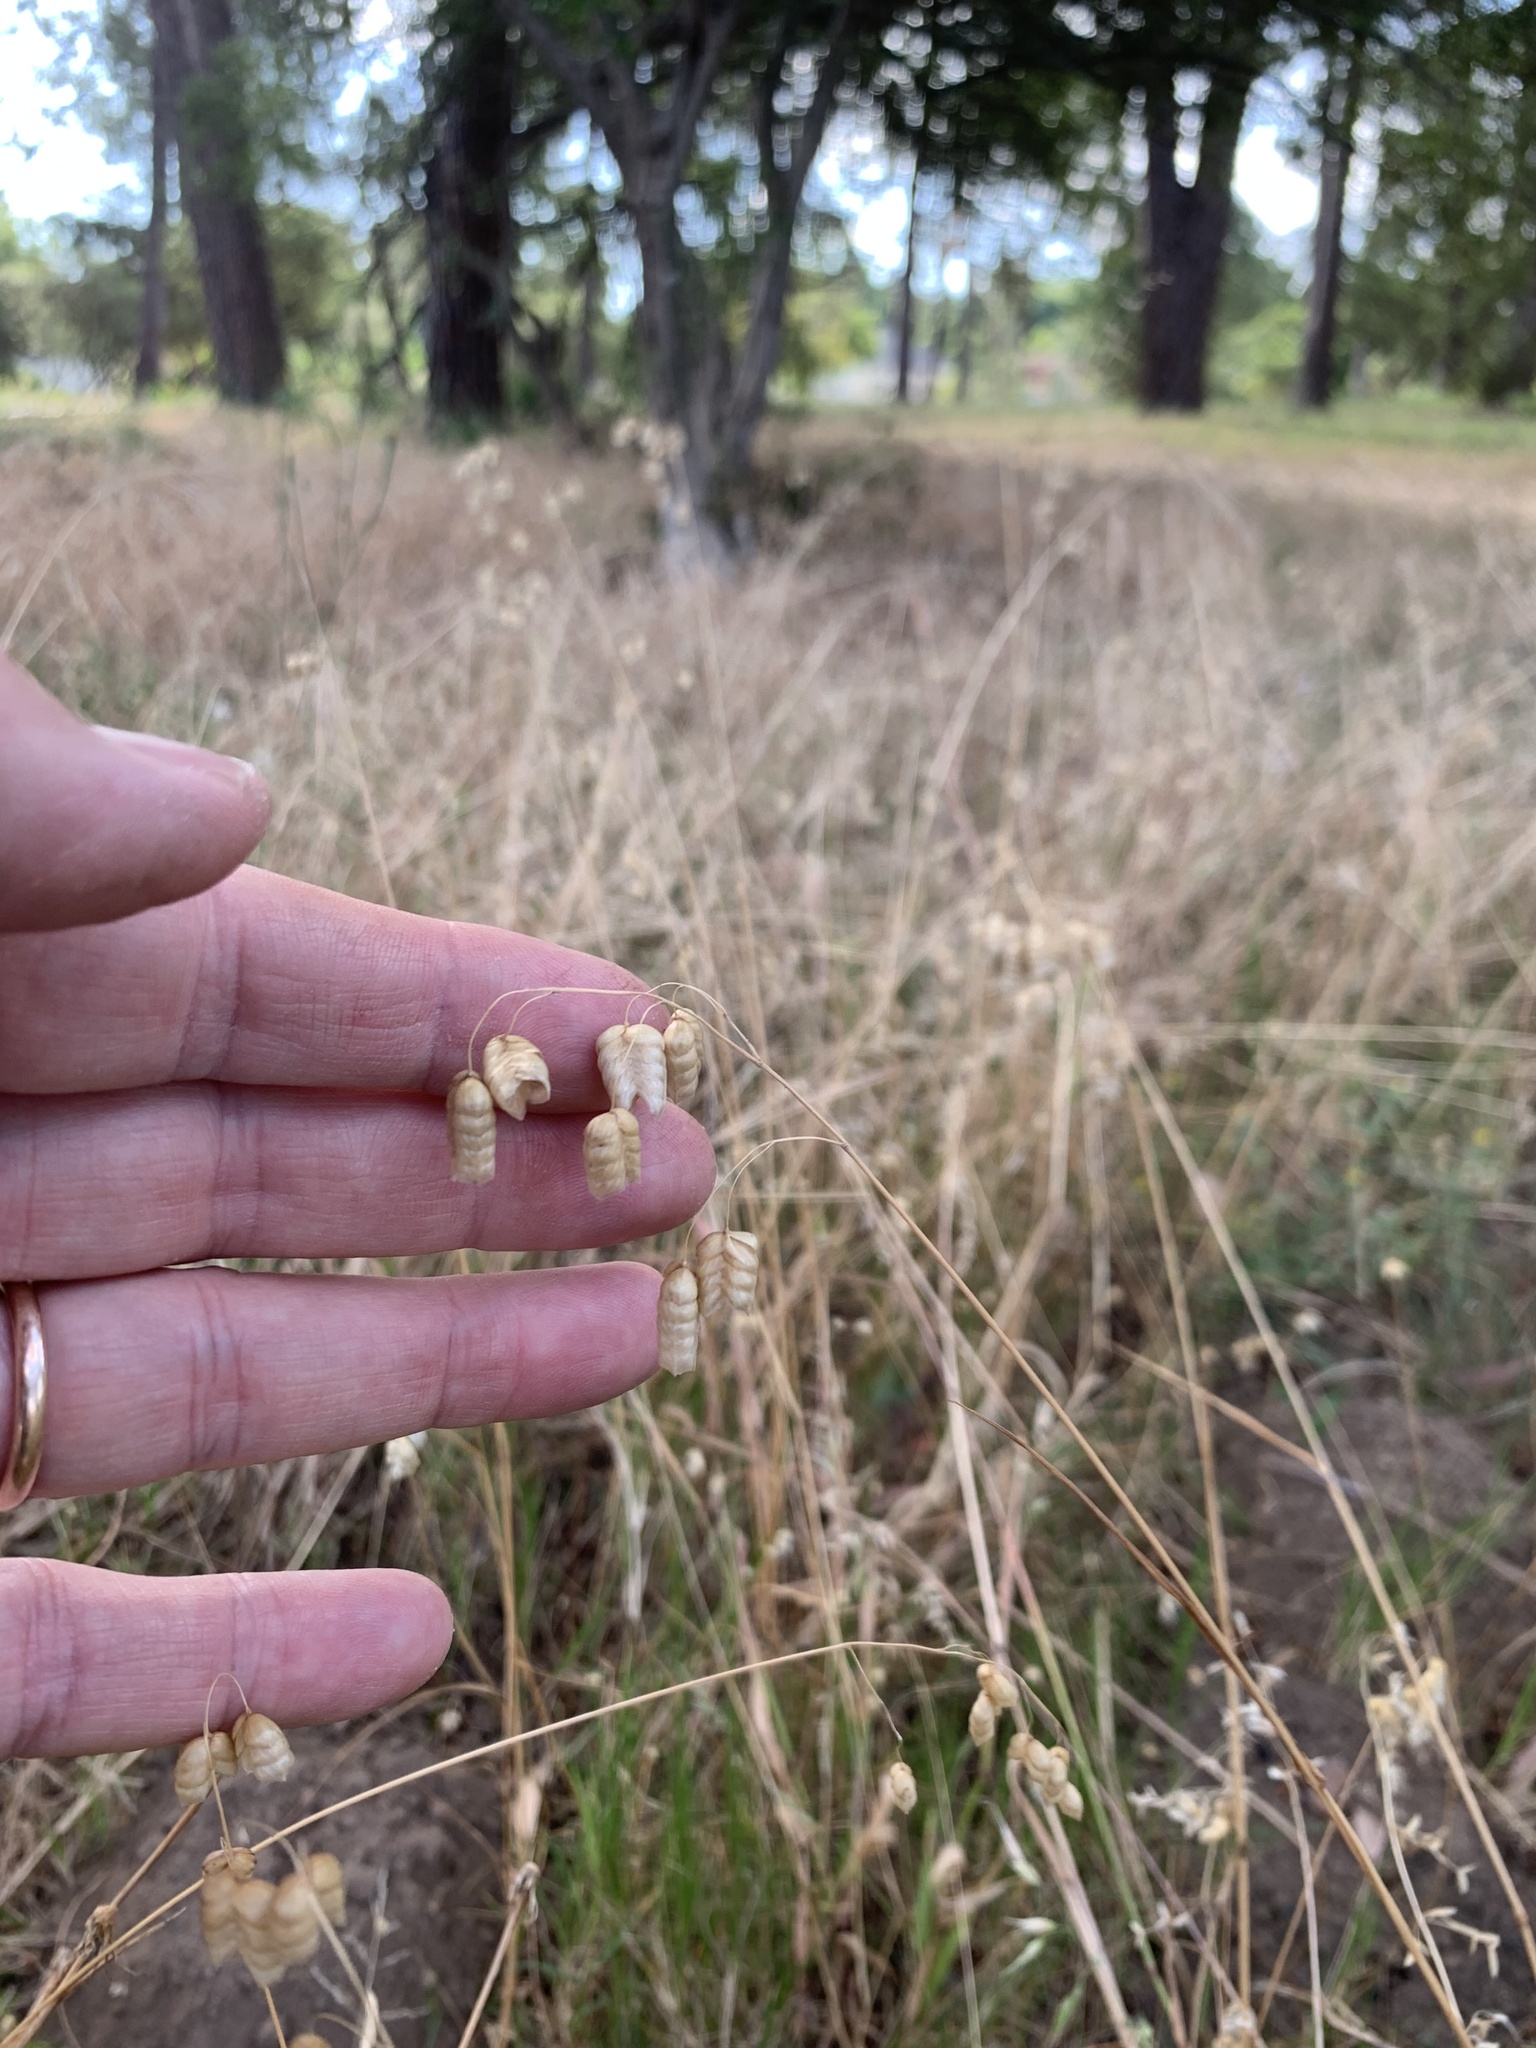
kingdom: Plantae
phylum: Tracheophyta
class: Liliopsida
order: Poales
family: Poaceae
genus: Briza
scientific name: Briza maxima
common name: Big quakinggrass
